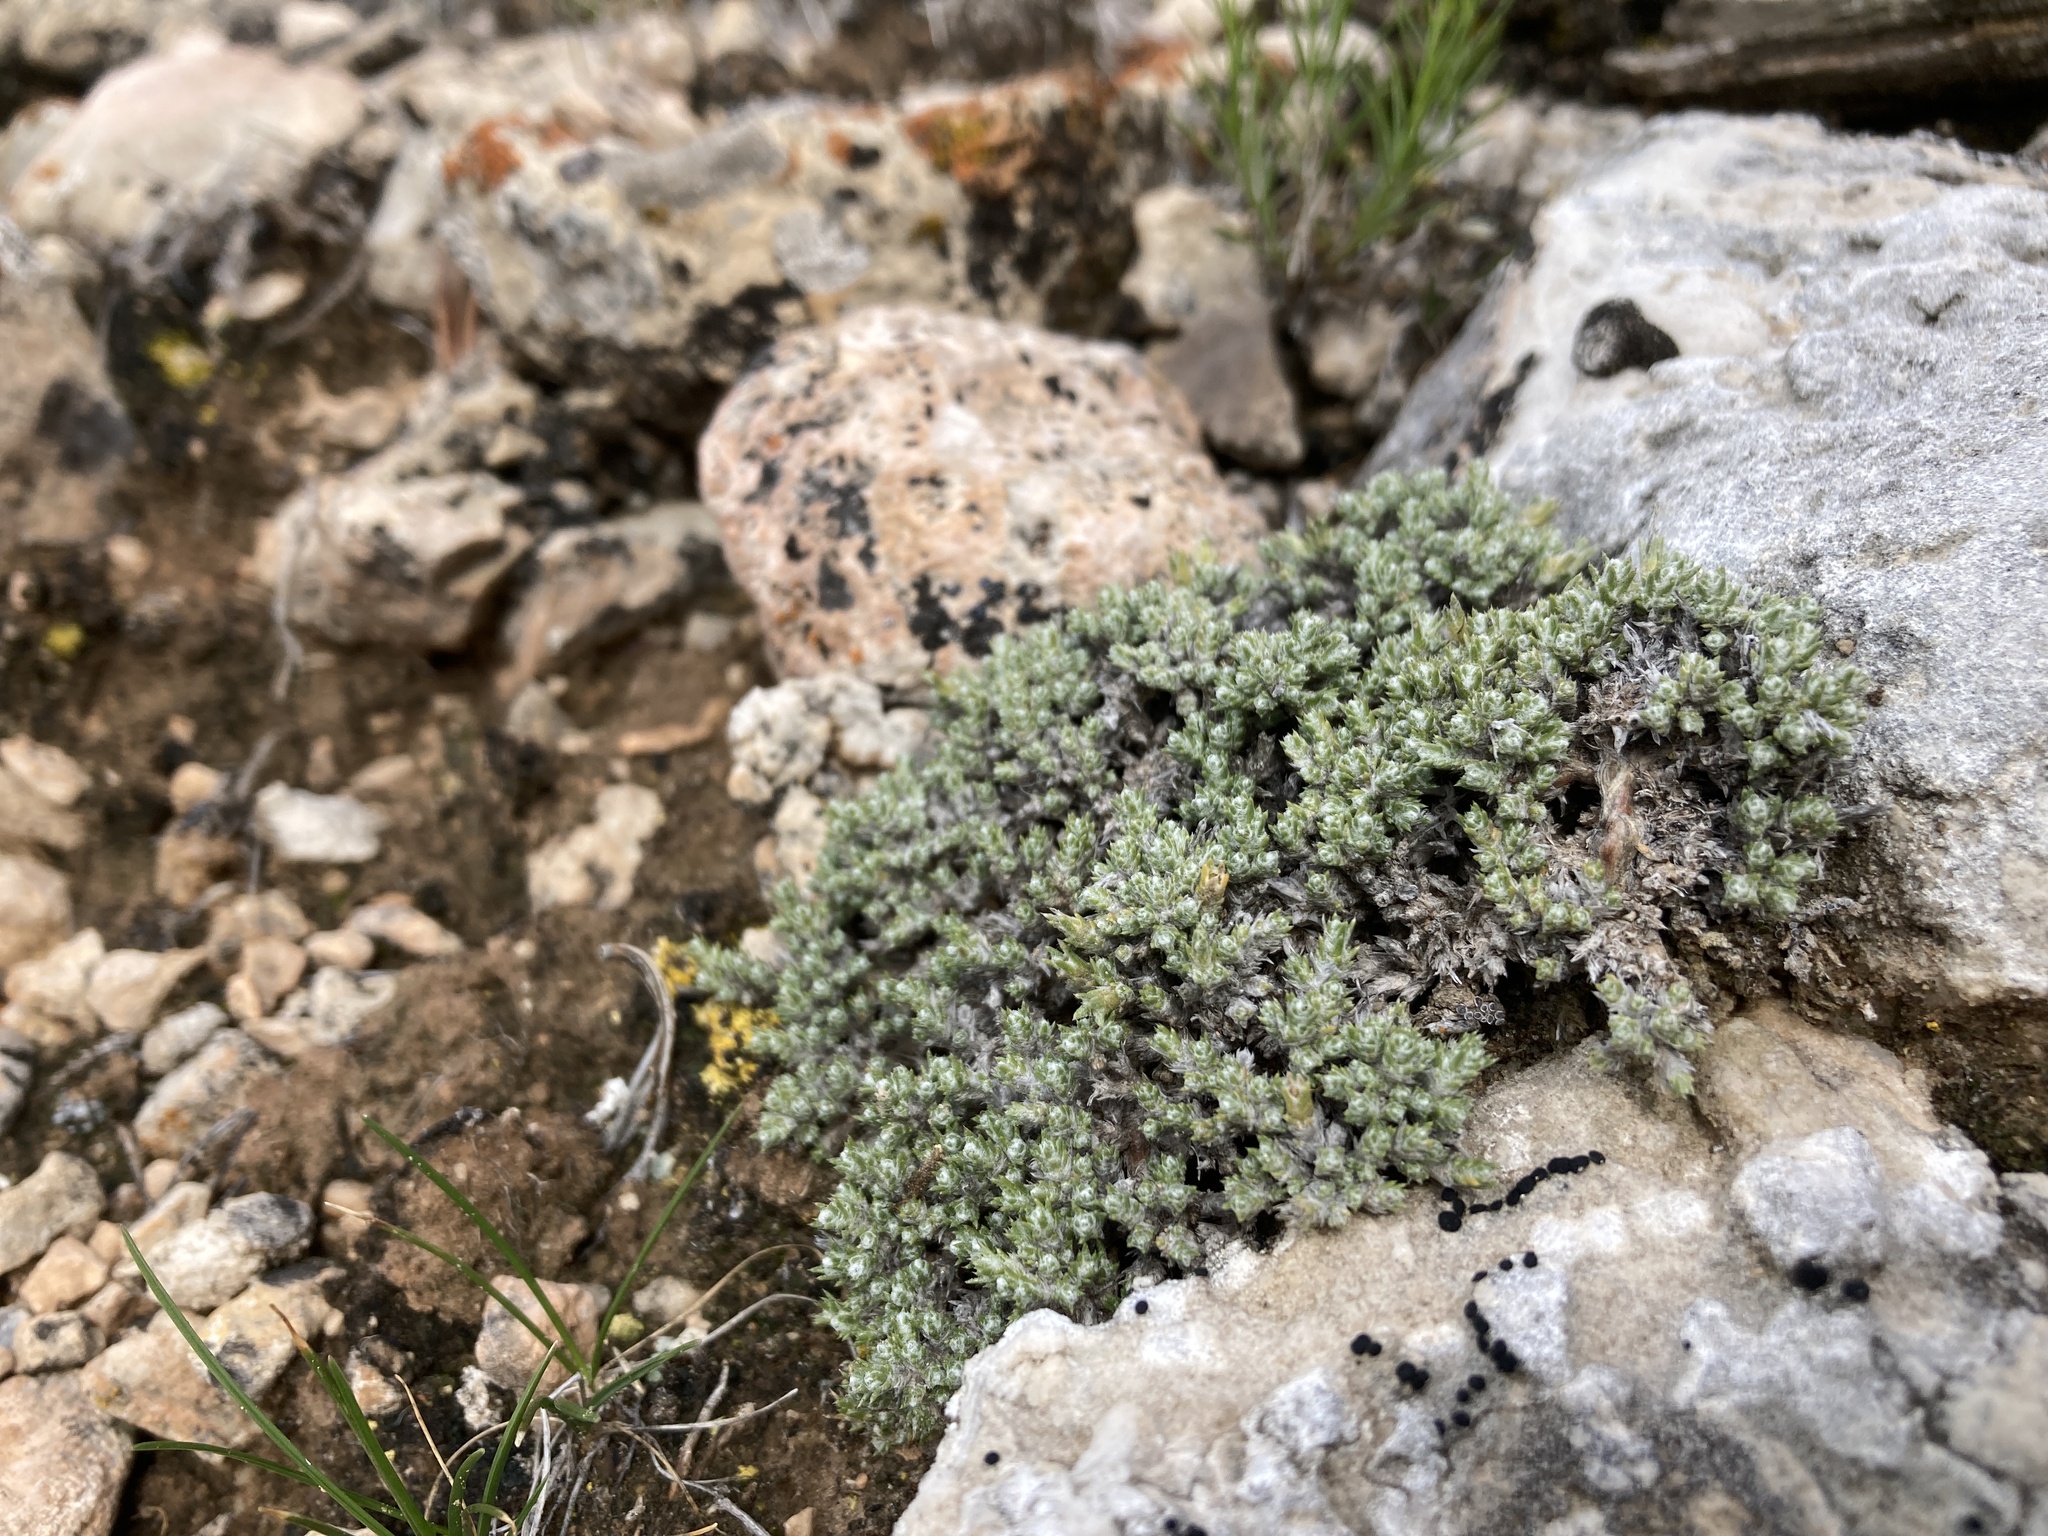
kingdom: Plantae
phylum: Tracheophyta
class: Magnoliopsida
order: Ericales
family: Polemoniaceae
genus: Phlox
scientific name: Phlox hoodii
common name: Moss phlox
